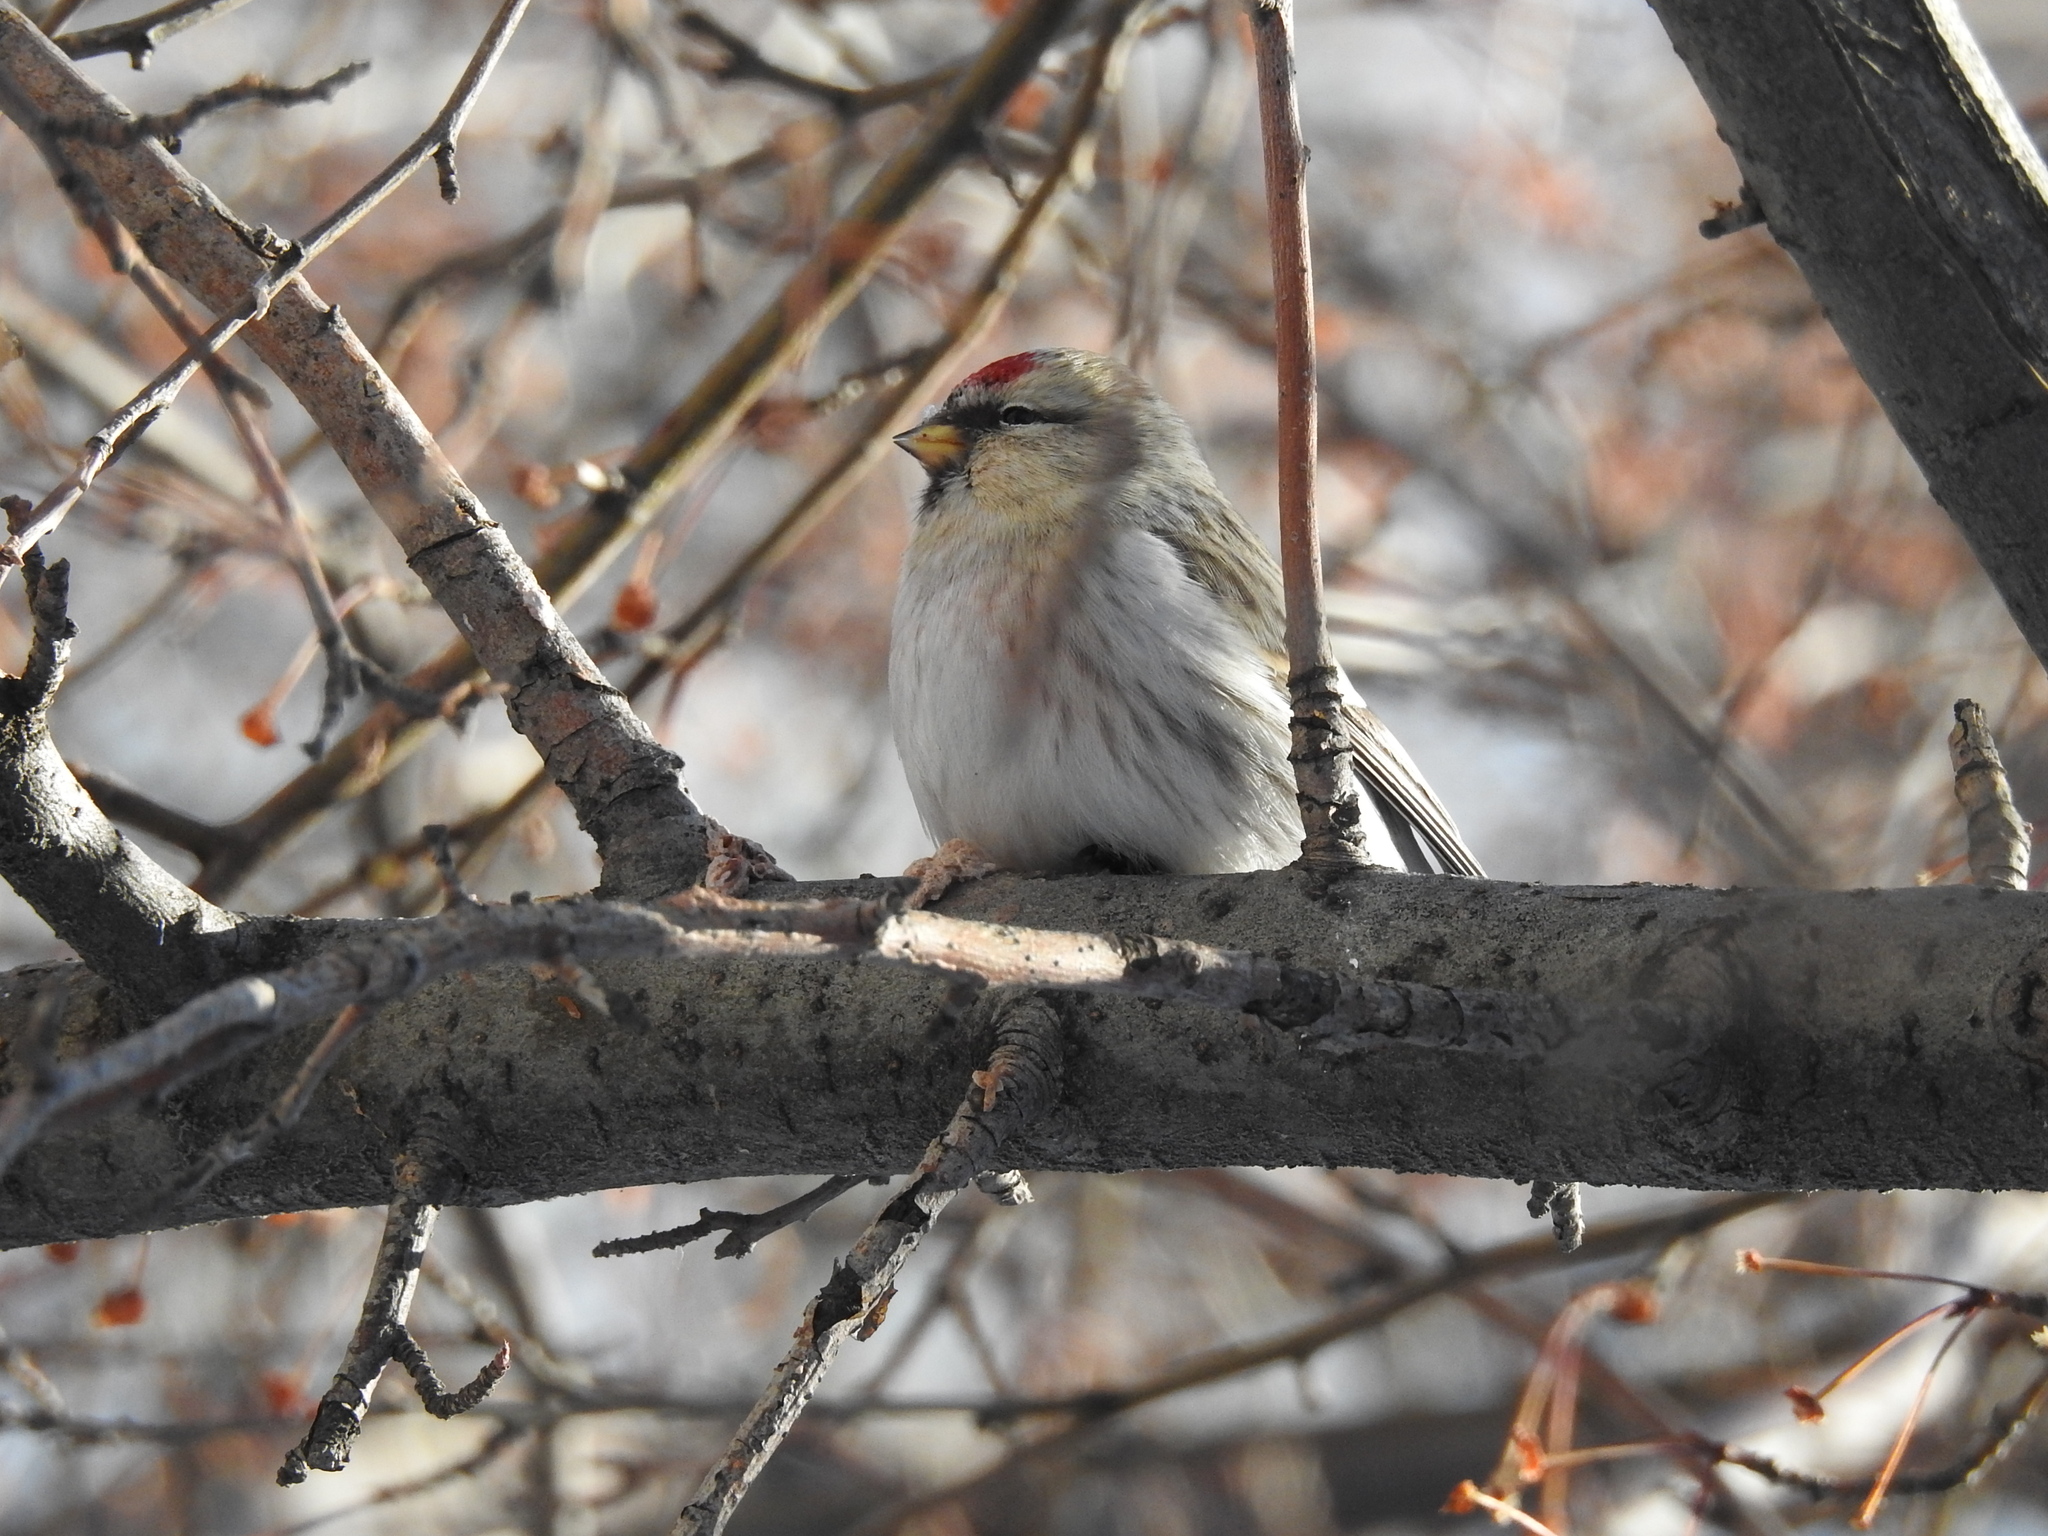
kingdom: Animalia
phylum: Chordata
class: Aves
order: Passeriformes
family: Fringillidae
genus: Acanthis
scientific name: Acanthis hornemanni
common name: Arctic redpoll
